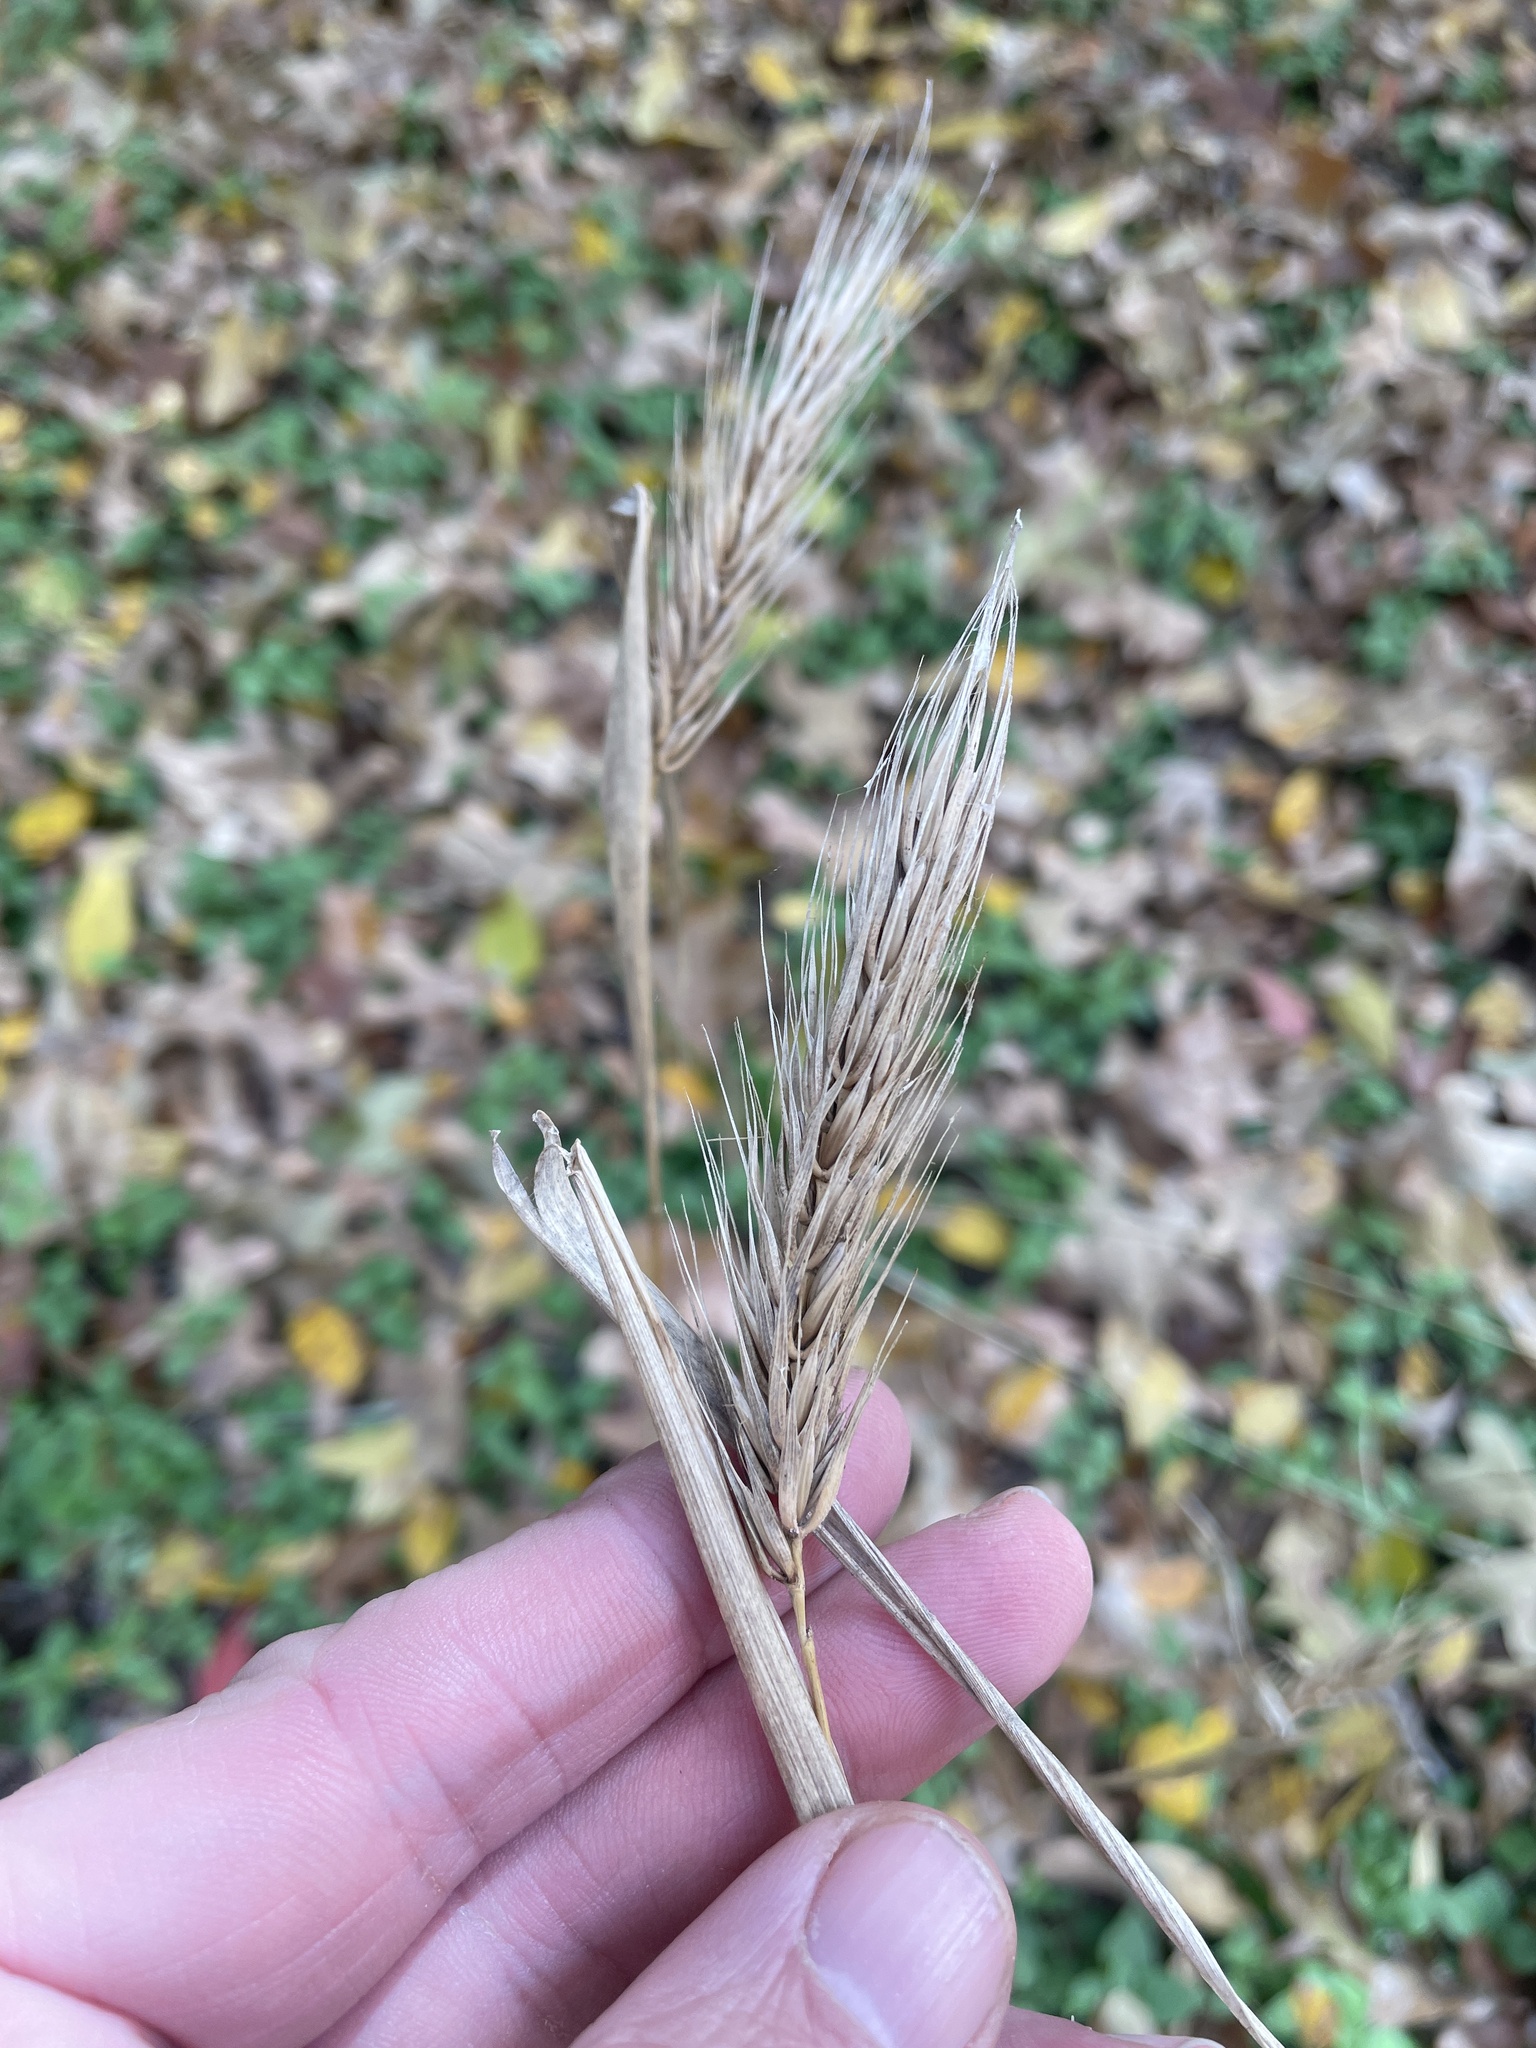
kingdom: Plantae
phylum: Tracheophyta
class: Liliopsida
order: Poales
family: Poaceae
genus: Elymus
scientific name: Elymus virginicus
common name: Common eastern wildrye
